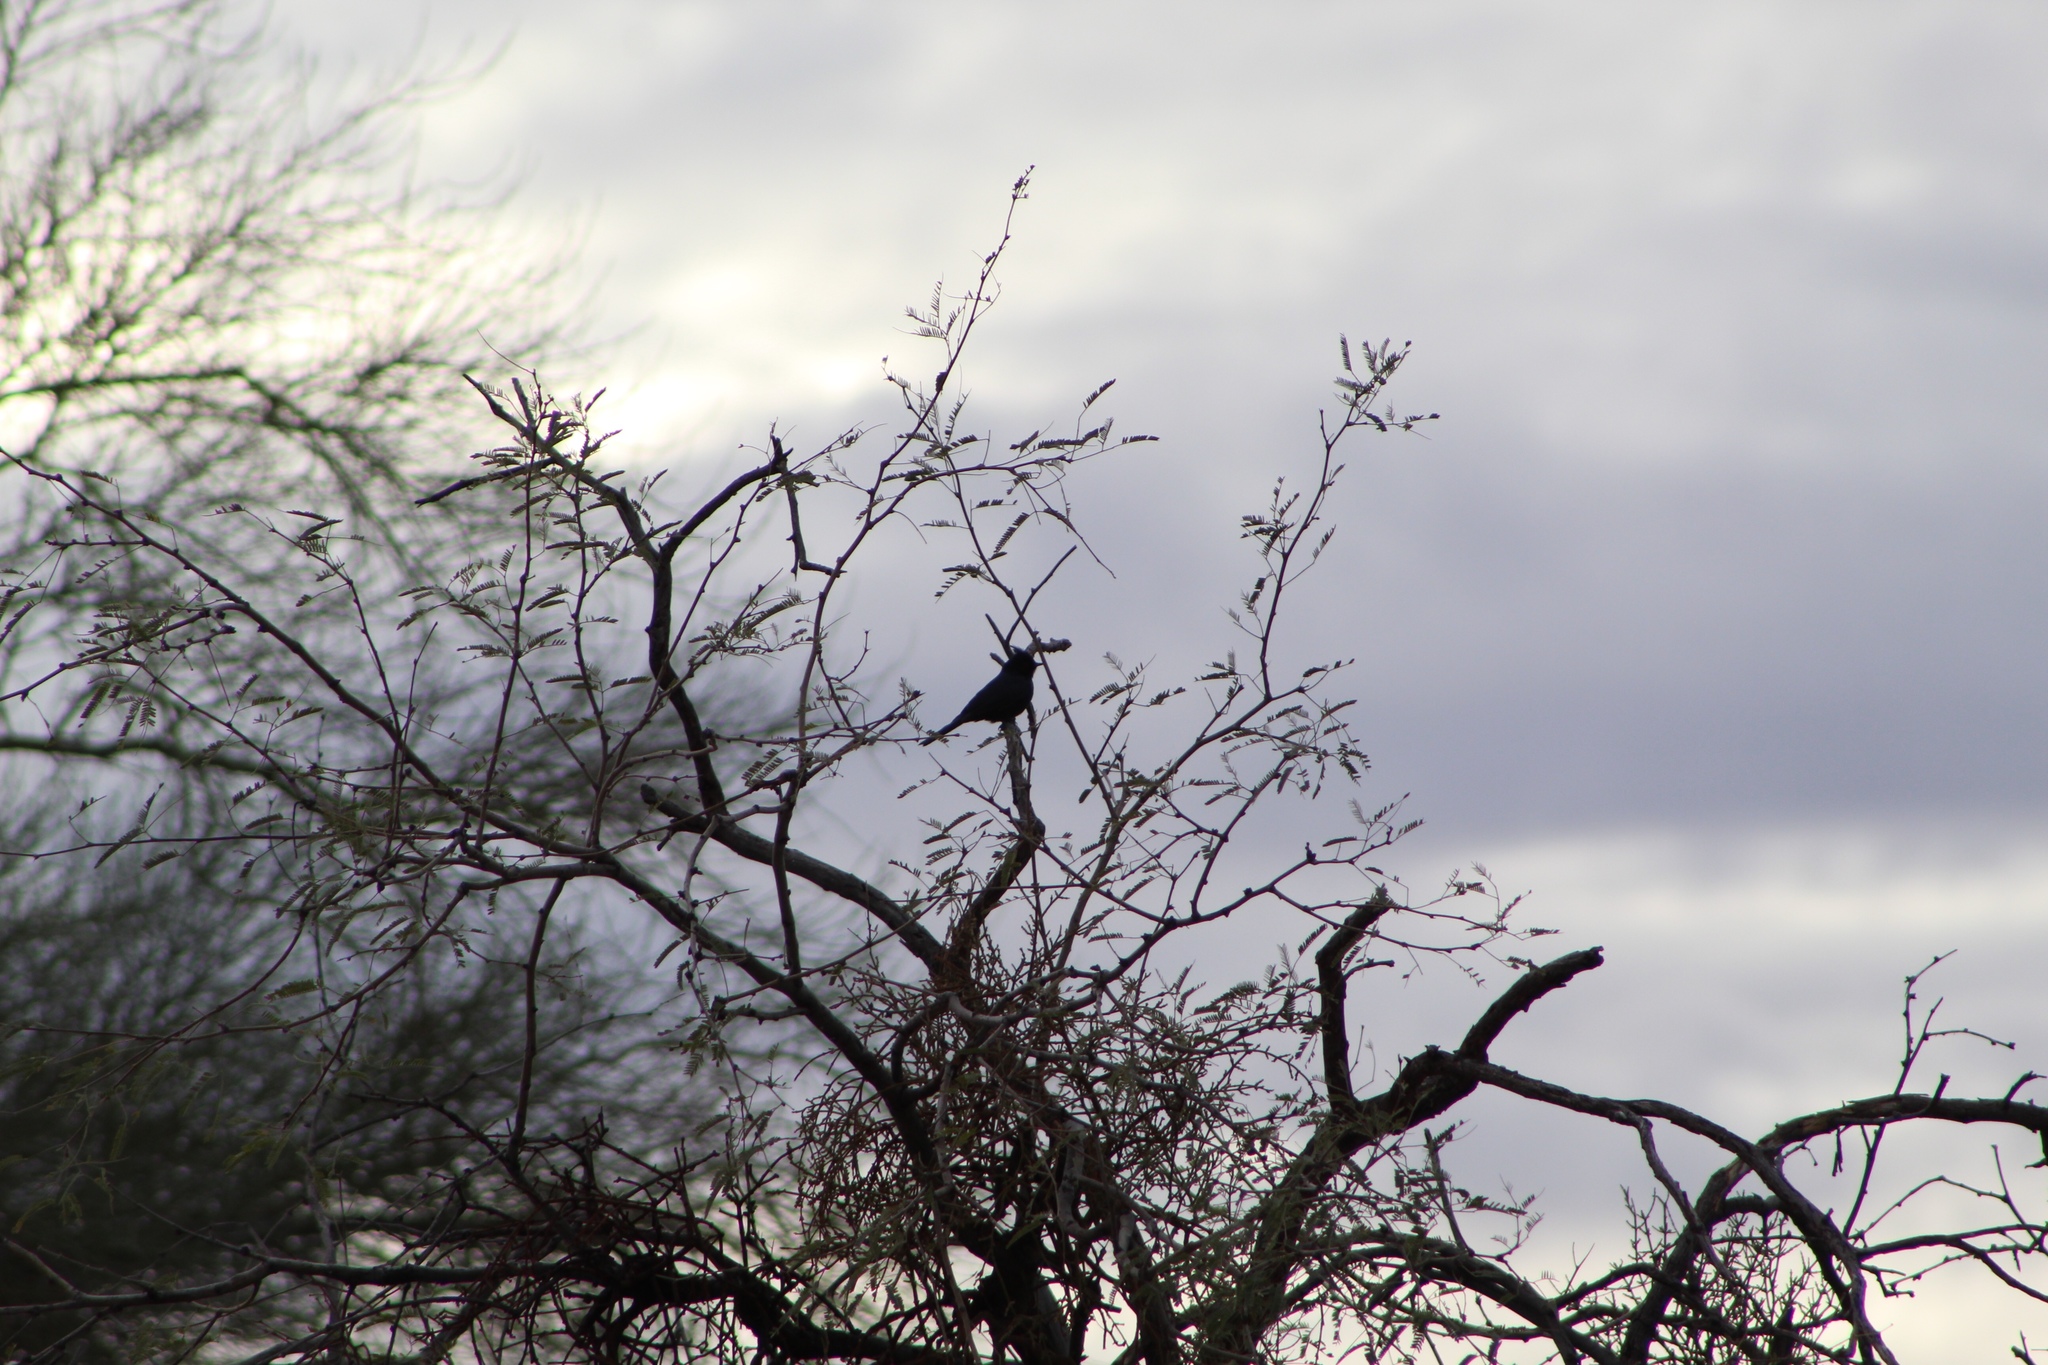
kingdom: Animalia
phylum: Chordata
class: Aves
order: Passeriformes
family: Ptilogonatidae
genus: Phainopepla
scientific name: Phainopepla nitens
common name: Phainopepla
